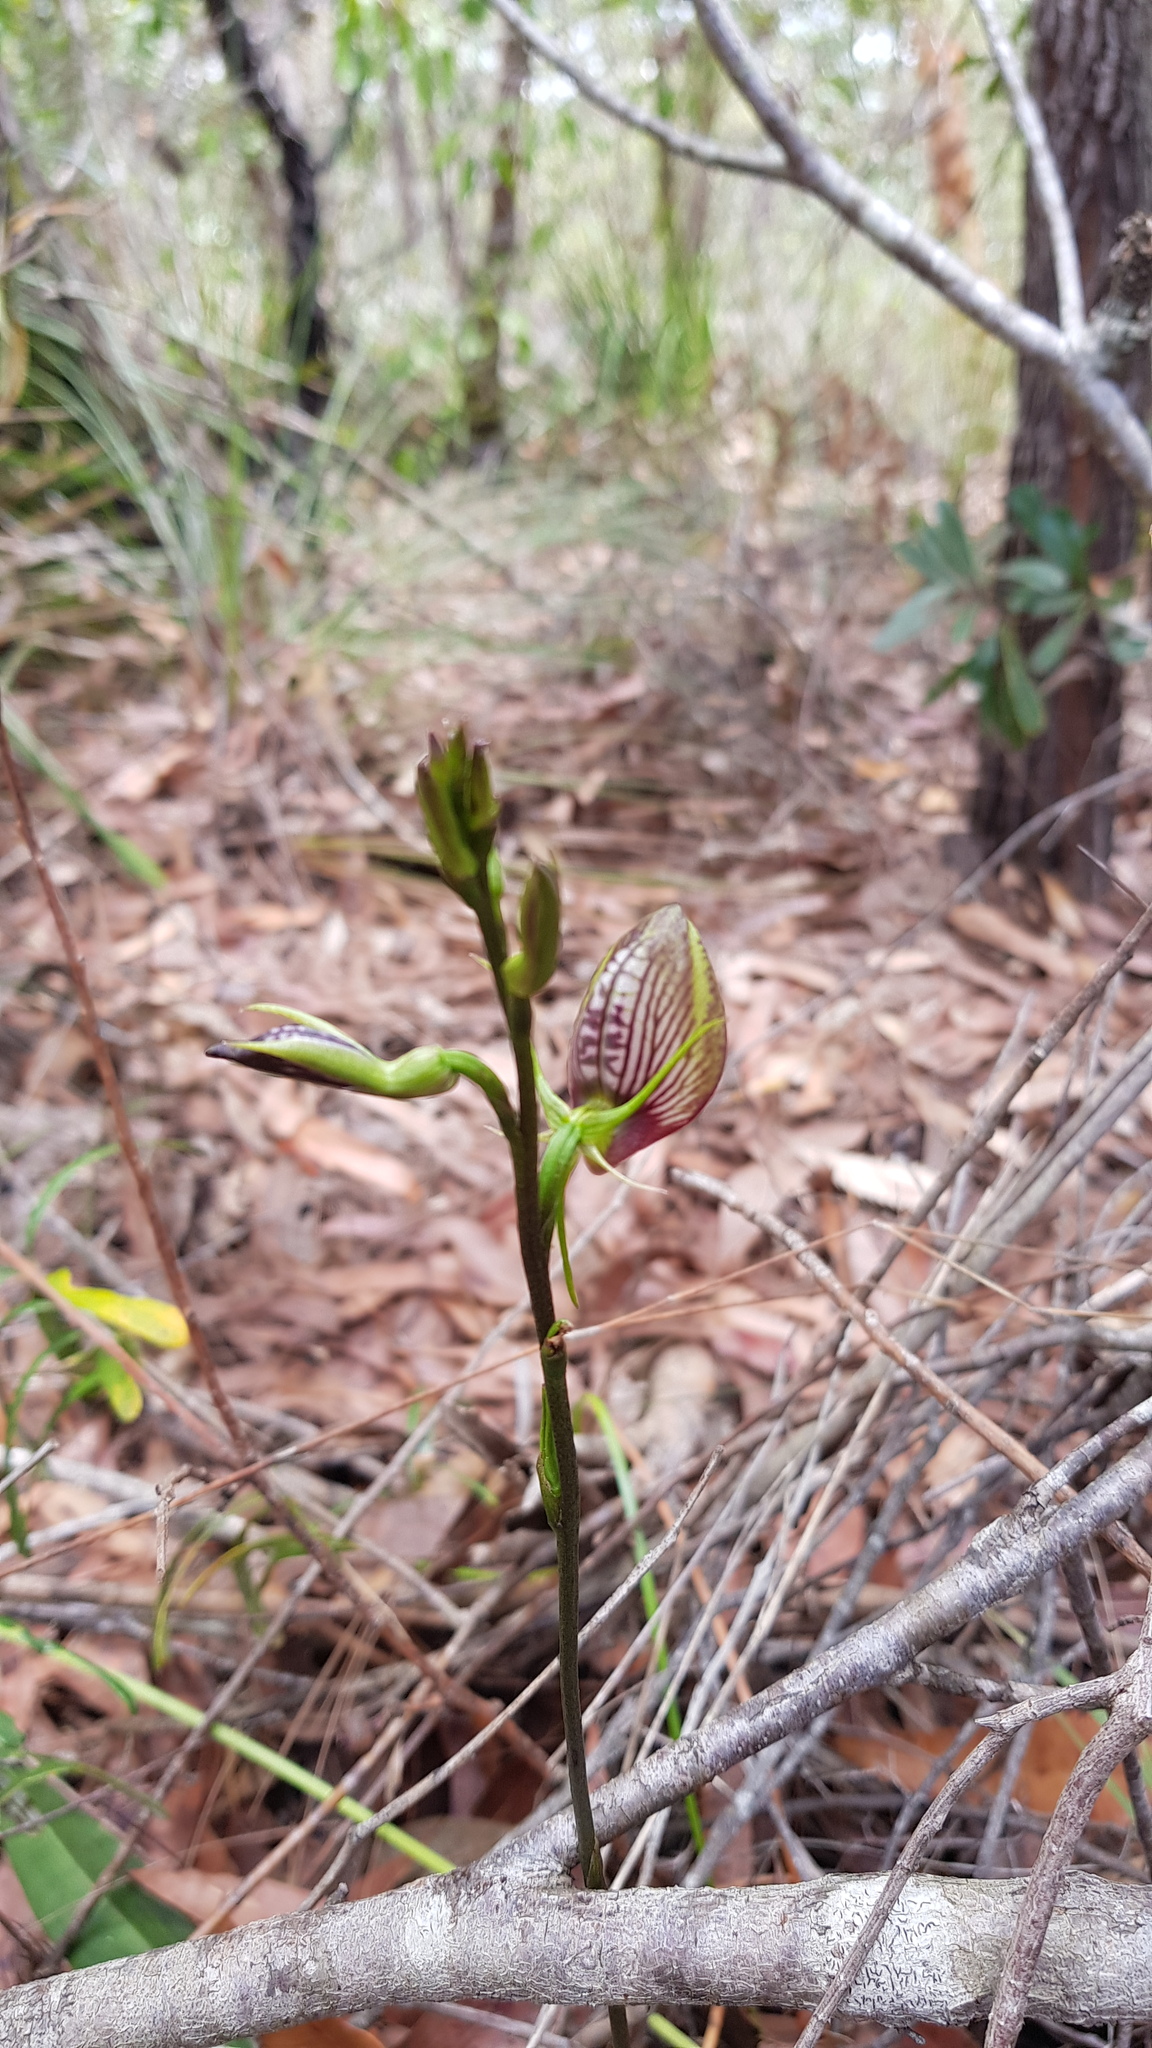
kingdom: Plantae
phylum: Tracheophyta
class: Liliopsida
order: Asparagales
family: Orchidaceae
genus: Cryptostylis
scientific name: Cryptostylis erecta
